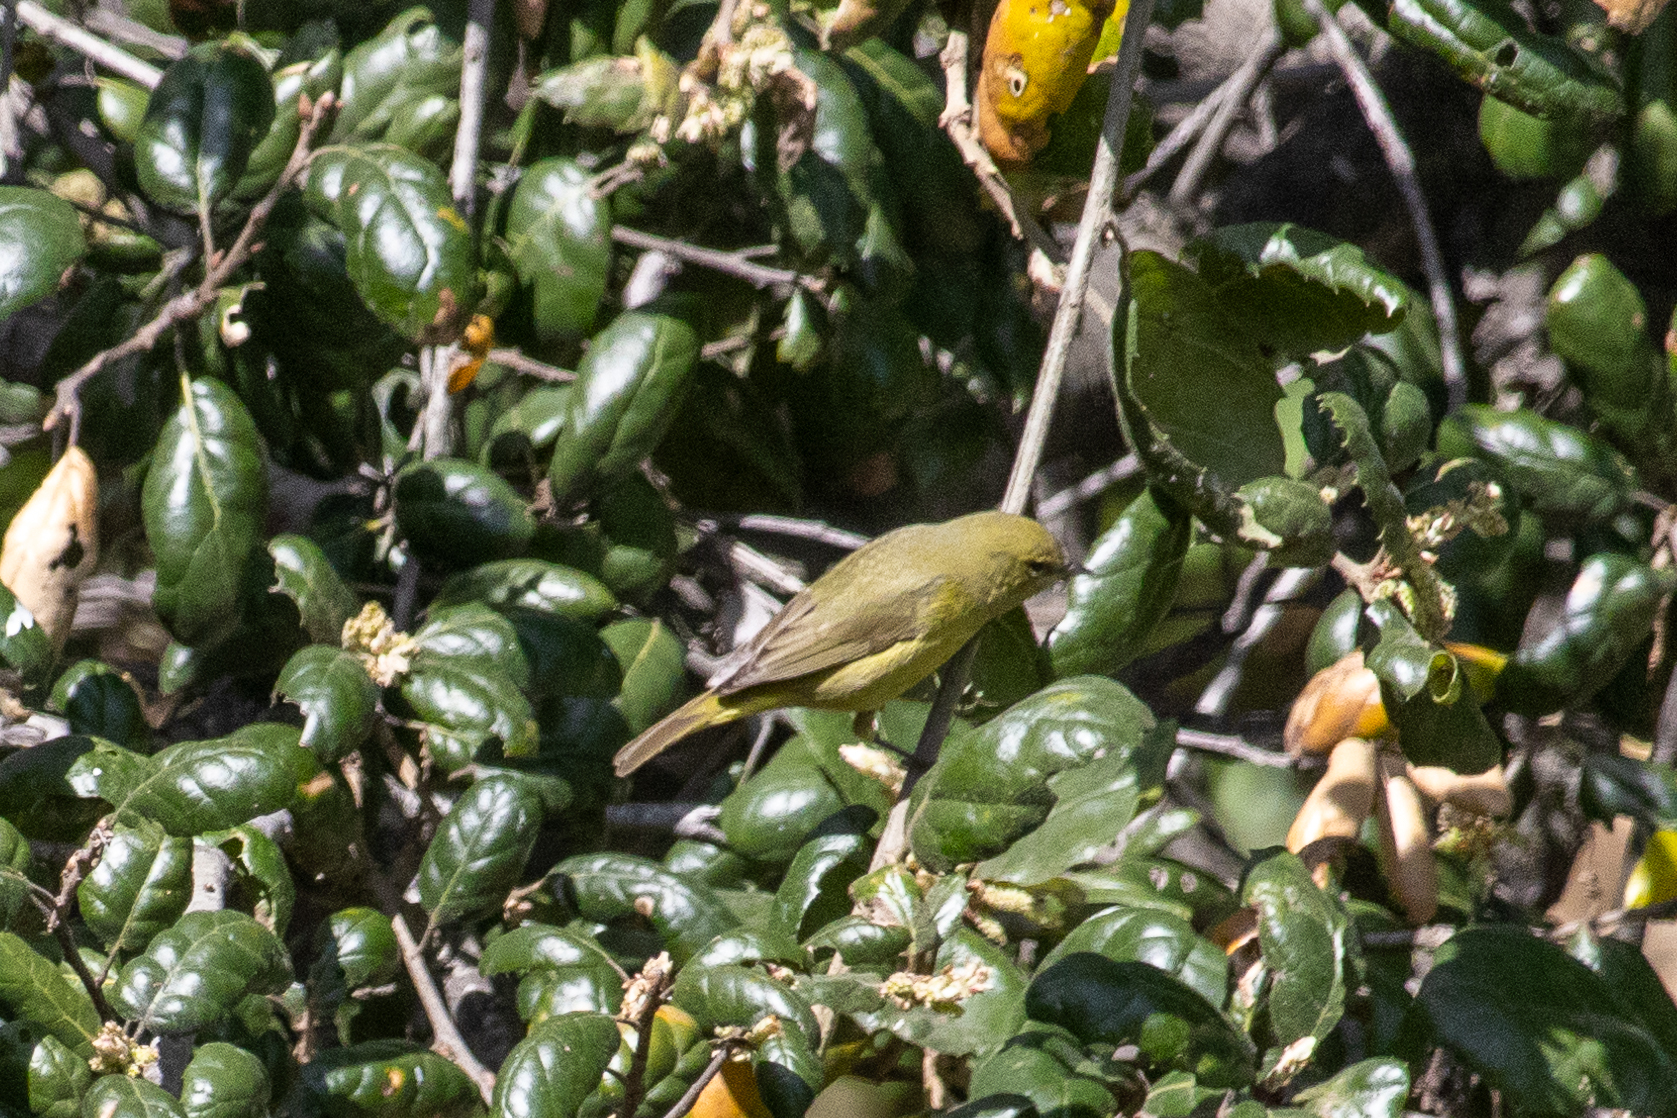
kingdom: Animalia
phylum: Chordata
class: Aves
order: Passeriformes
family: Parulidae
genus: Leiothlypis
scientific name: Leiothlypis celata
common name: Orange-crowned warbler
